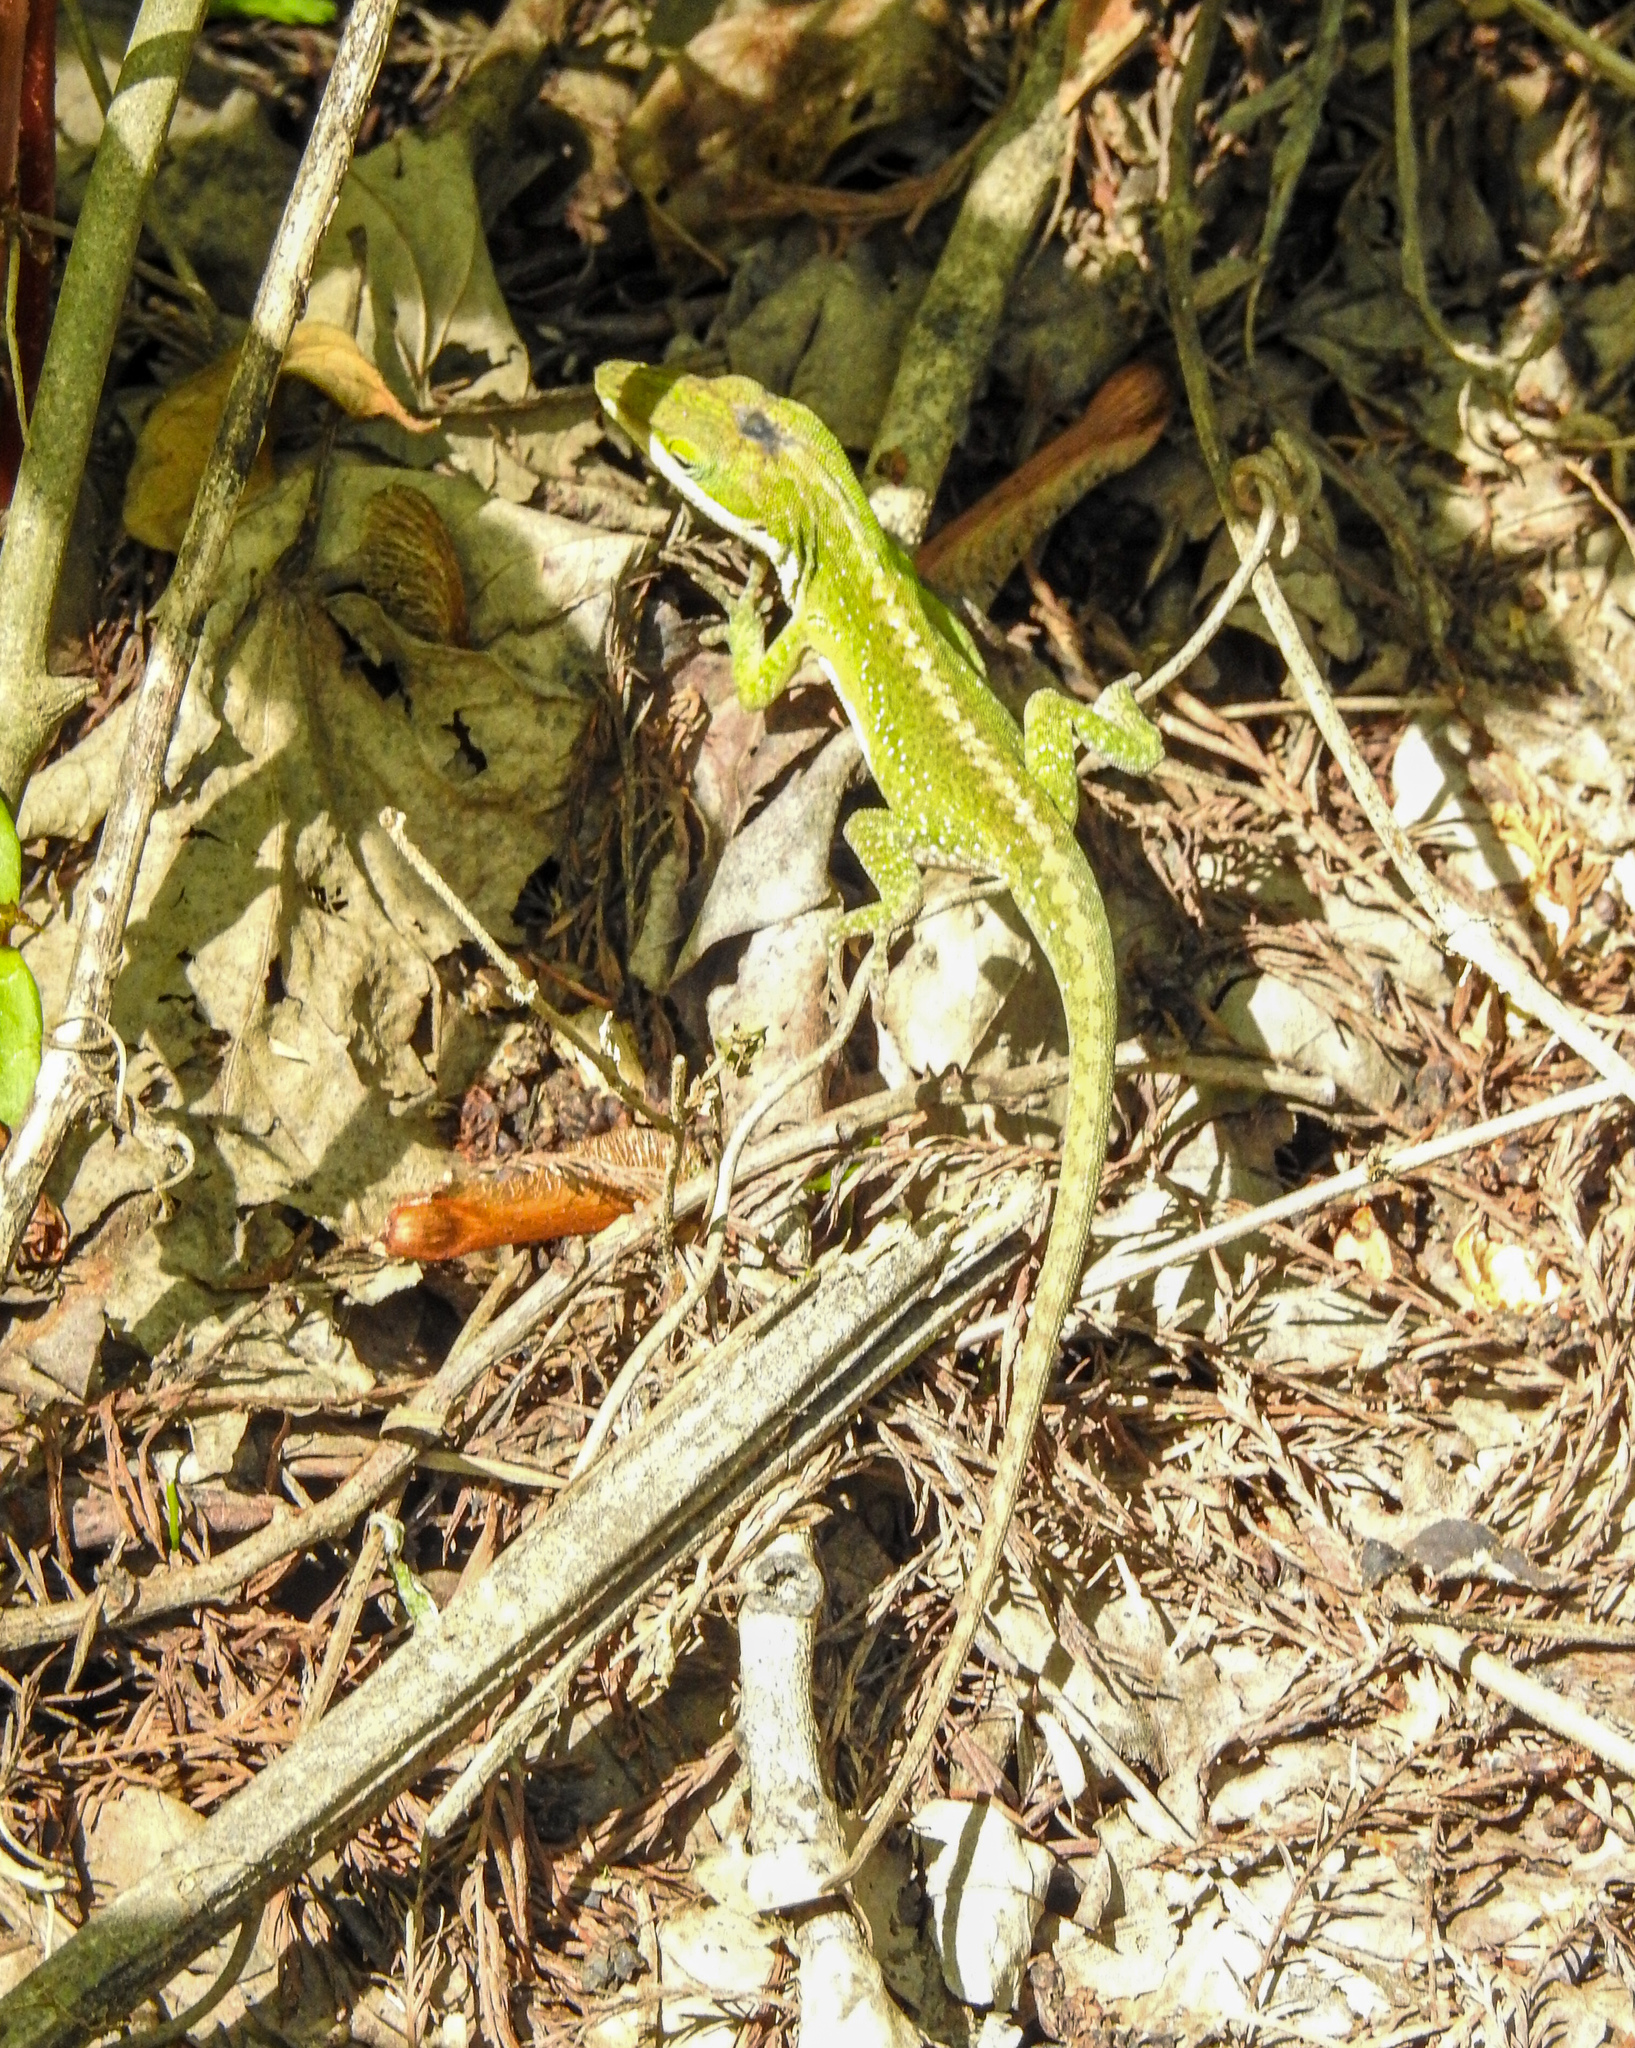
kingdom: Animalia
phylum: Chordata
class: Squamata
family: Dactyloidae
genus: Anolis
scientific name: Anolis carolinensis
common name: Green anole
